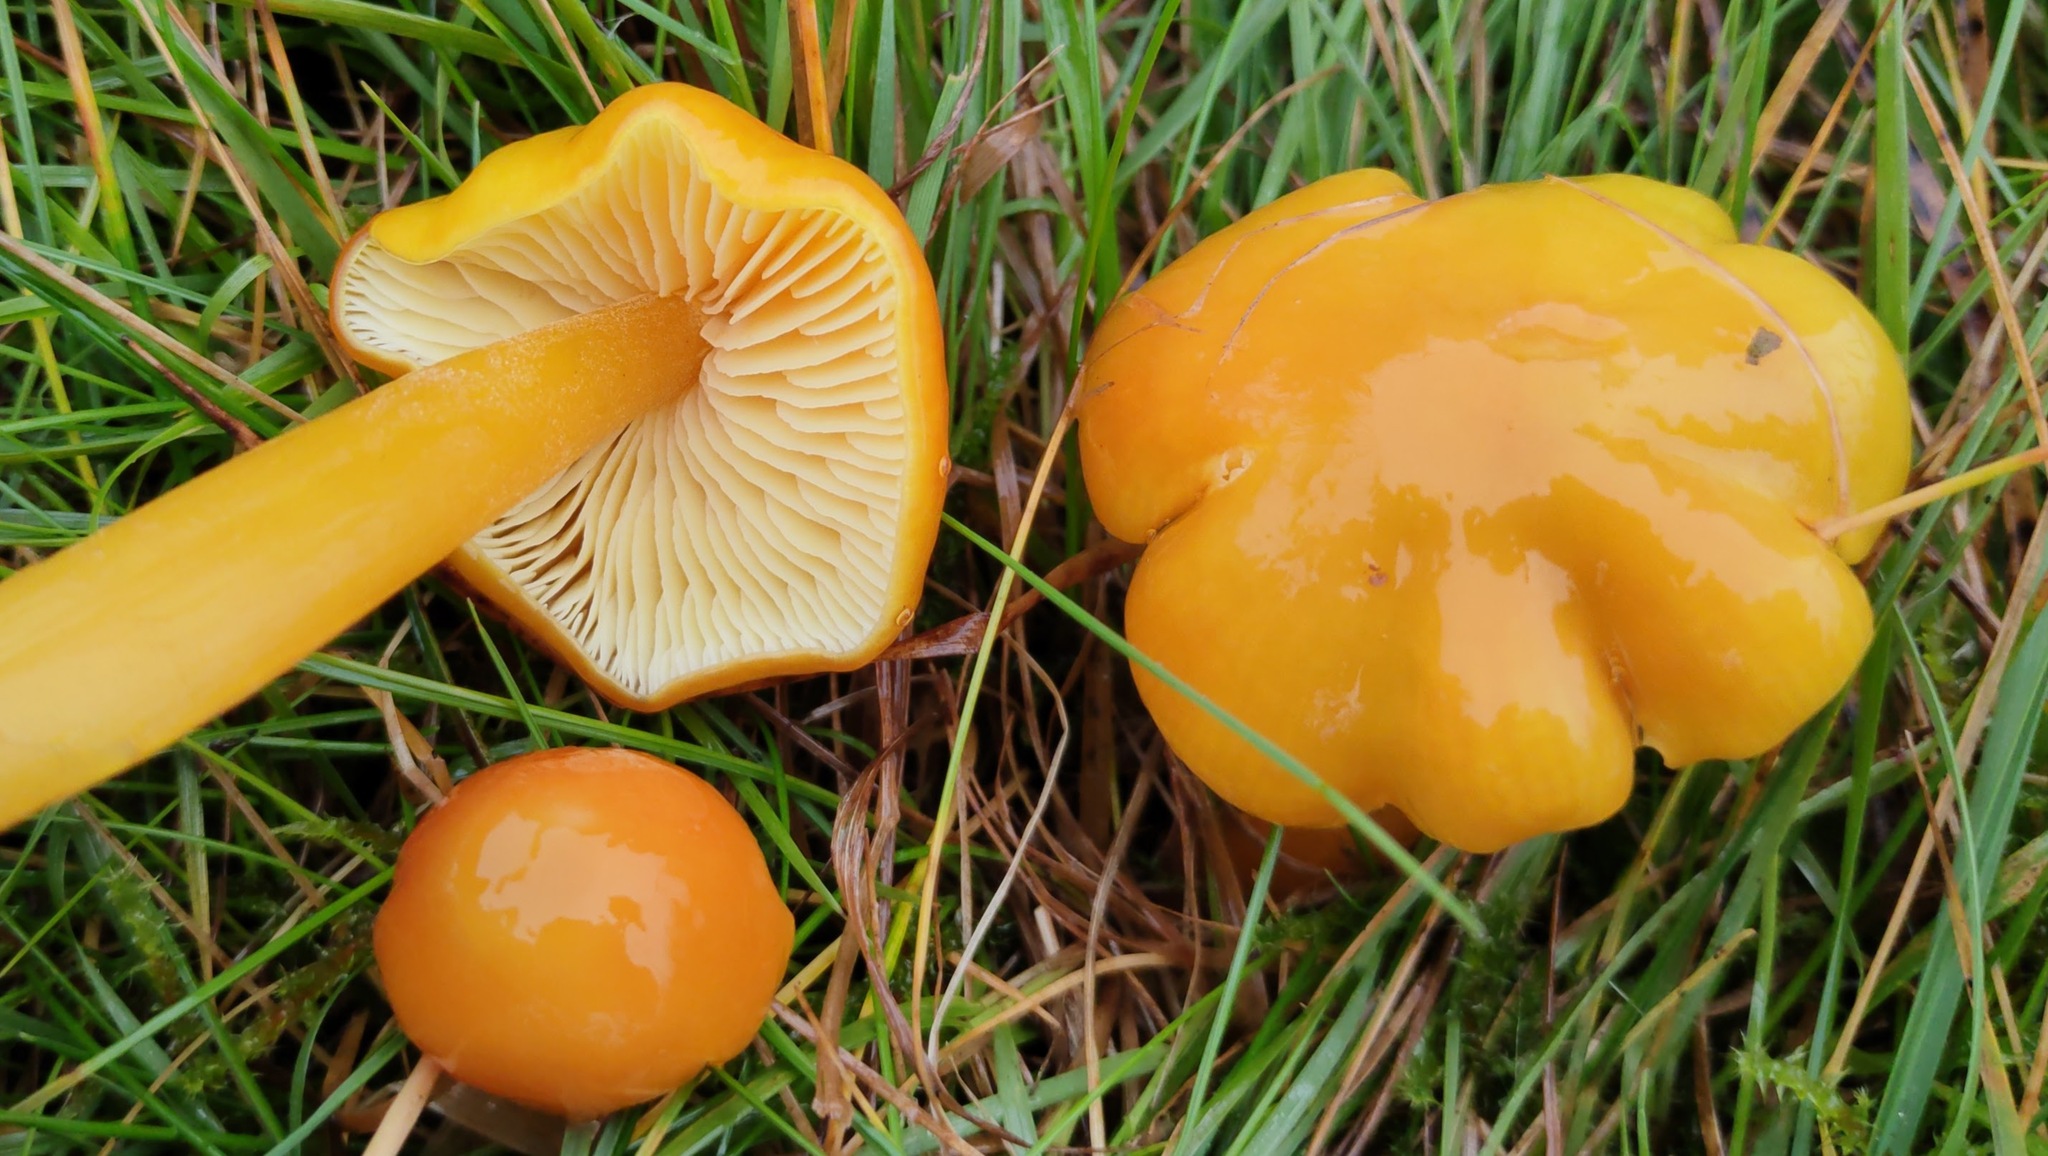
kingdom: Fungi
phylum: Basidiomycota
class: Agaricomycetes
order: Agaricales
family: Hygrophoraceae
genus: Hygrocybe
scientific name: Hygrocybe chlorophana
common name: Golden waxcap
